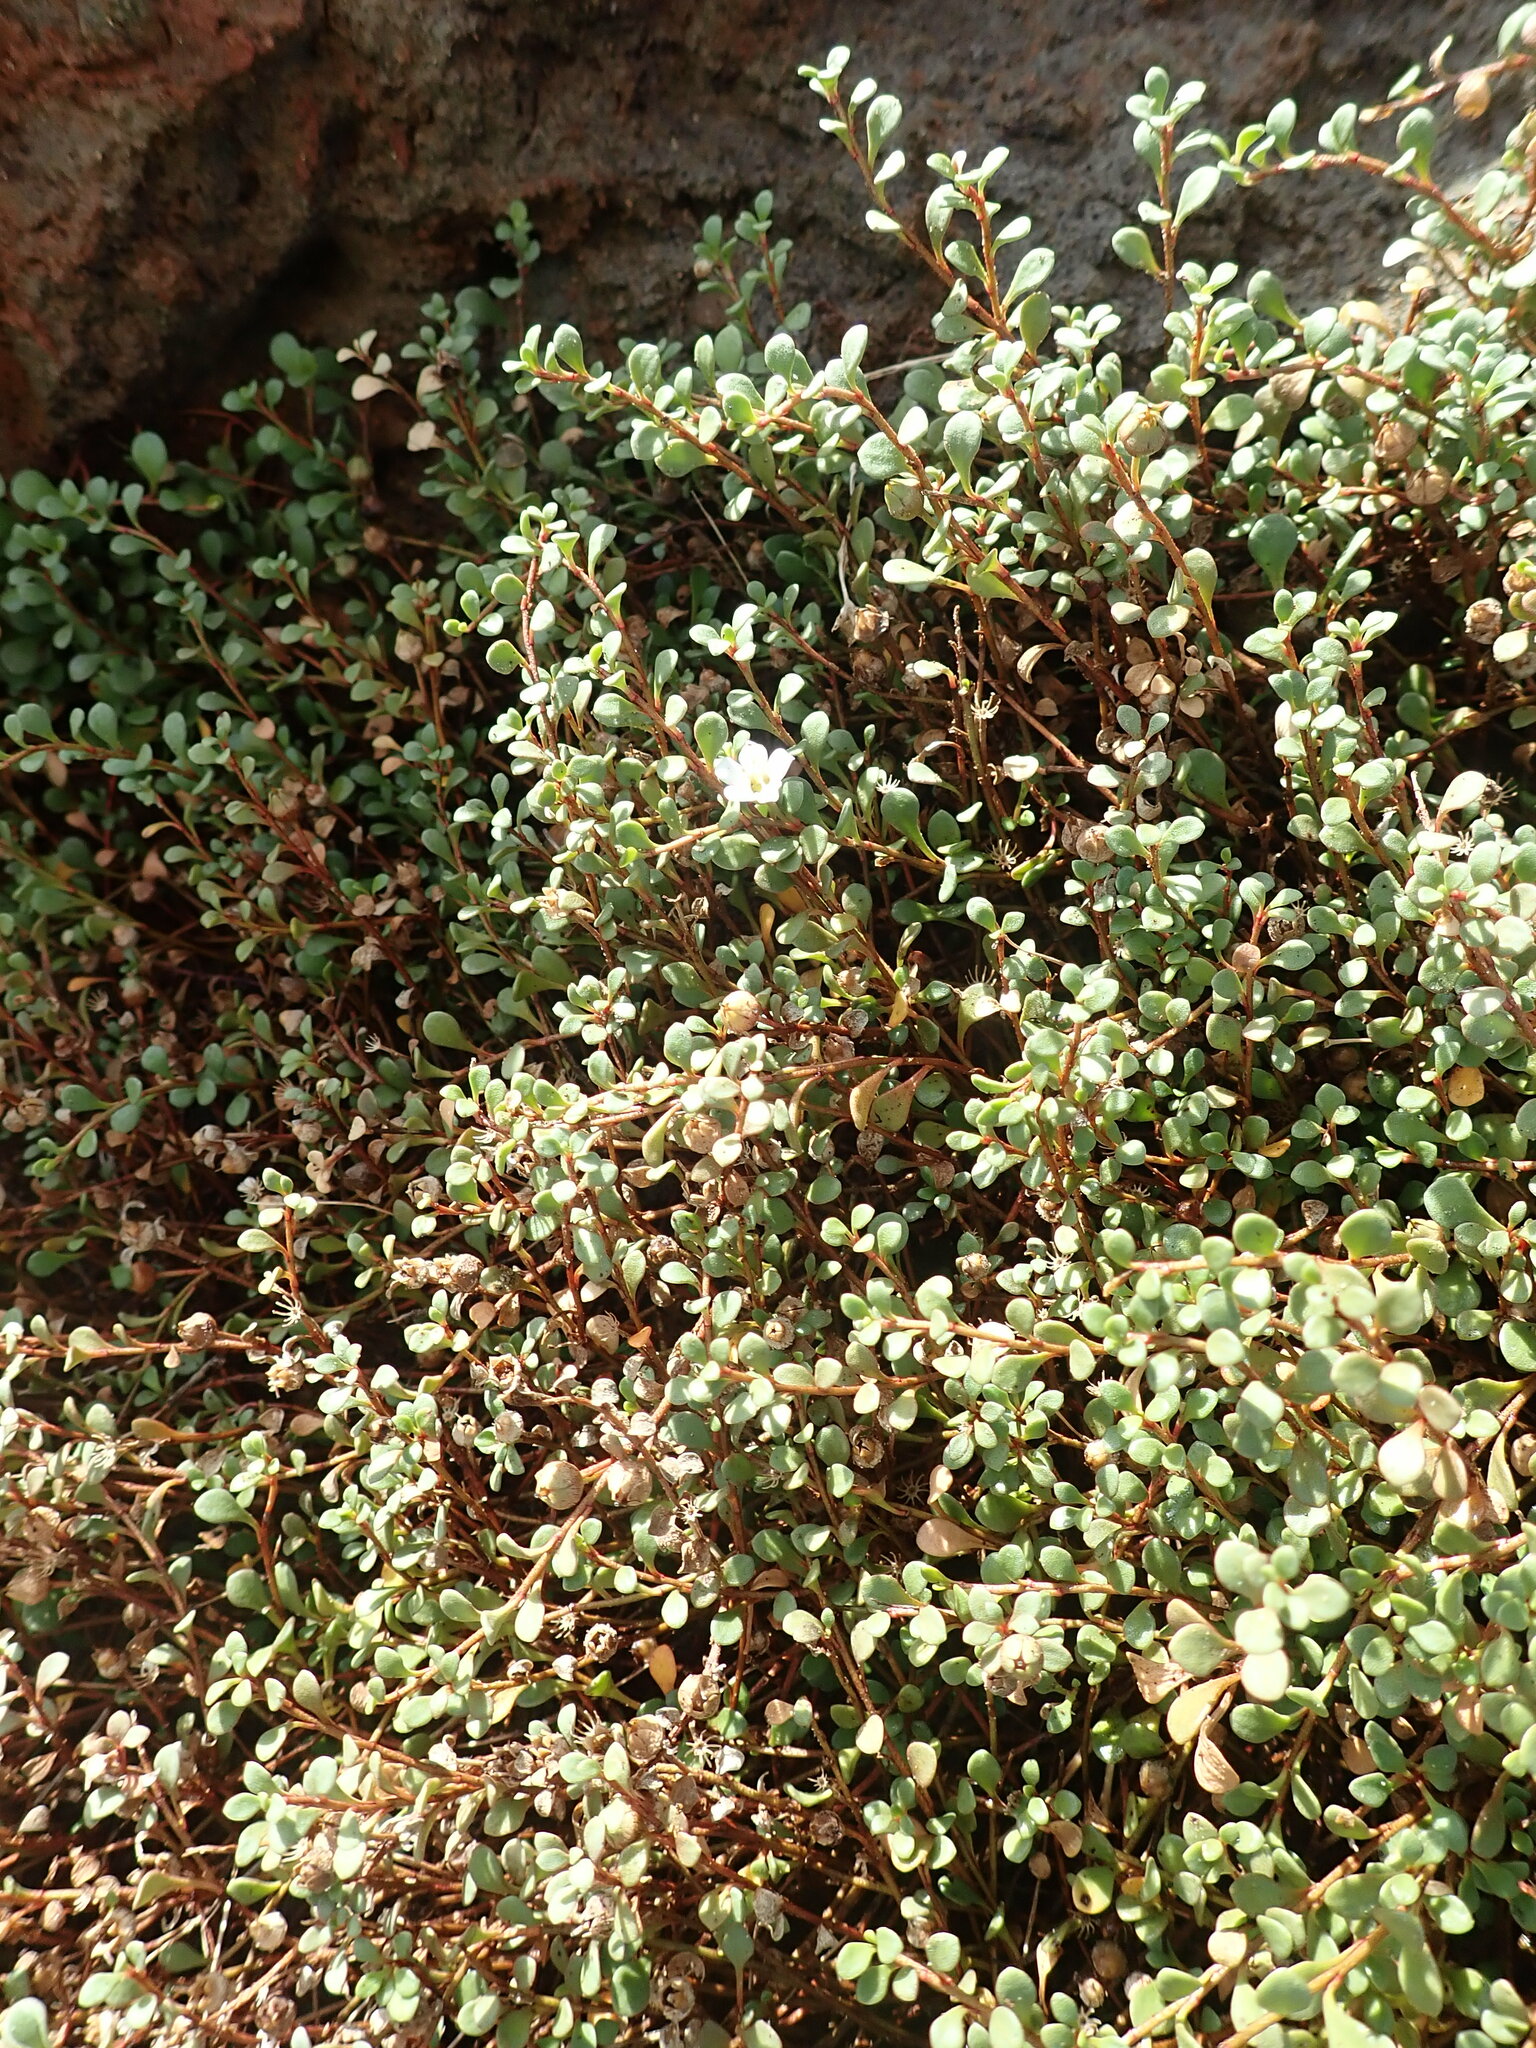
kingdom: Plantae
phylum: Tracheophyta
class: Magnoliopsida
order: Ericales
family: Primulaceae
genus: Samolus
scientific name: Samolus repens
